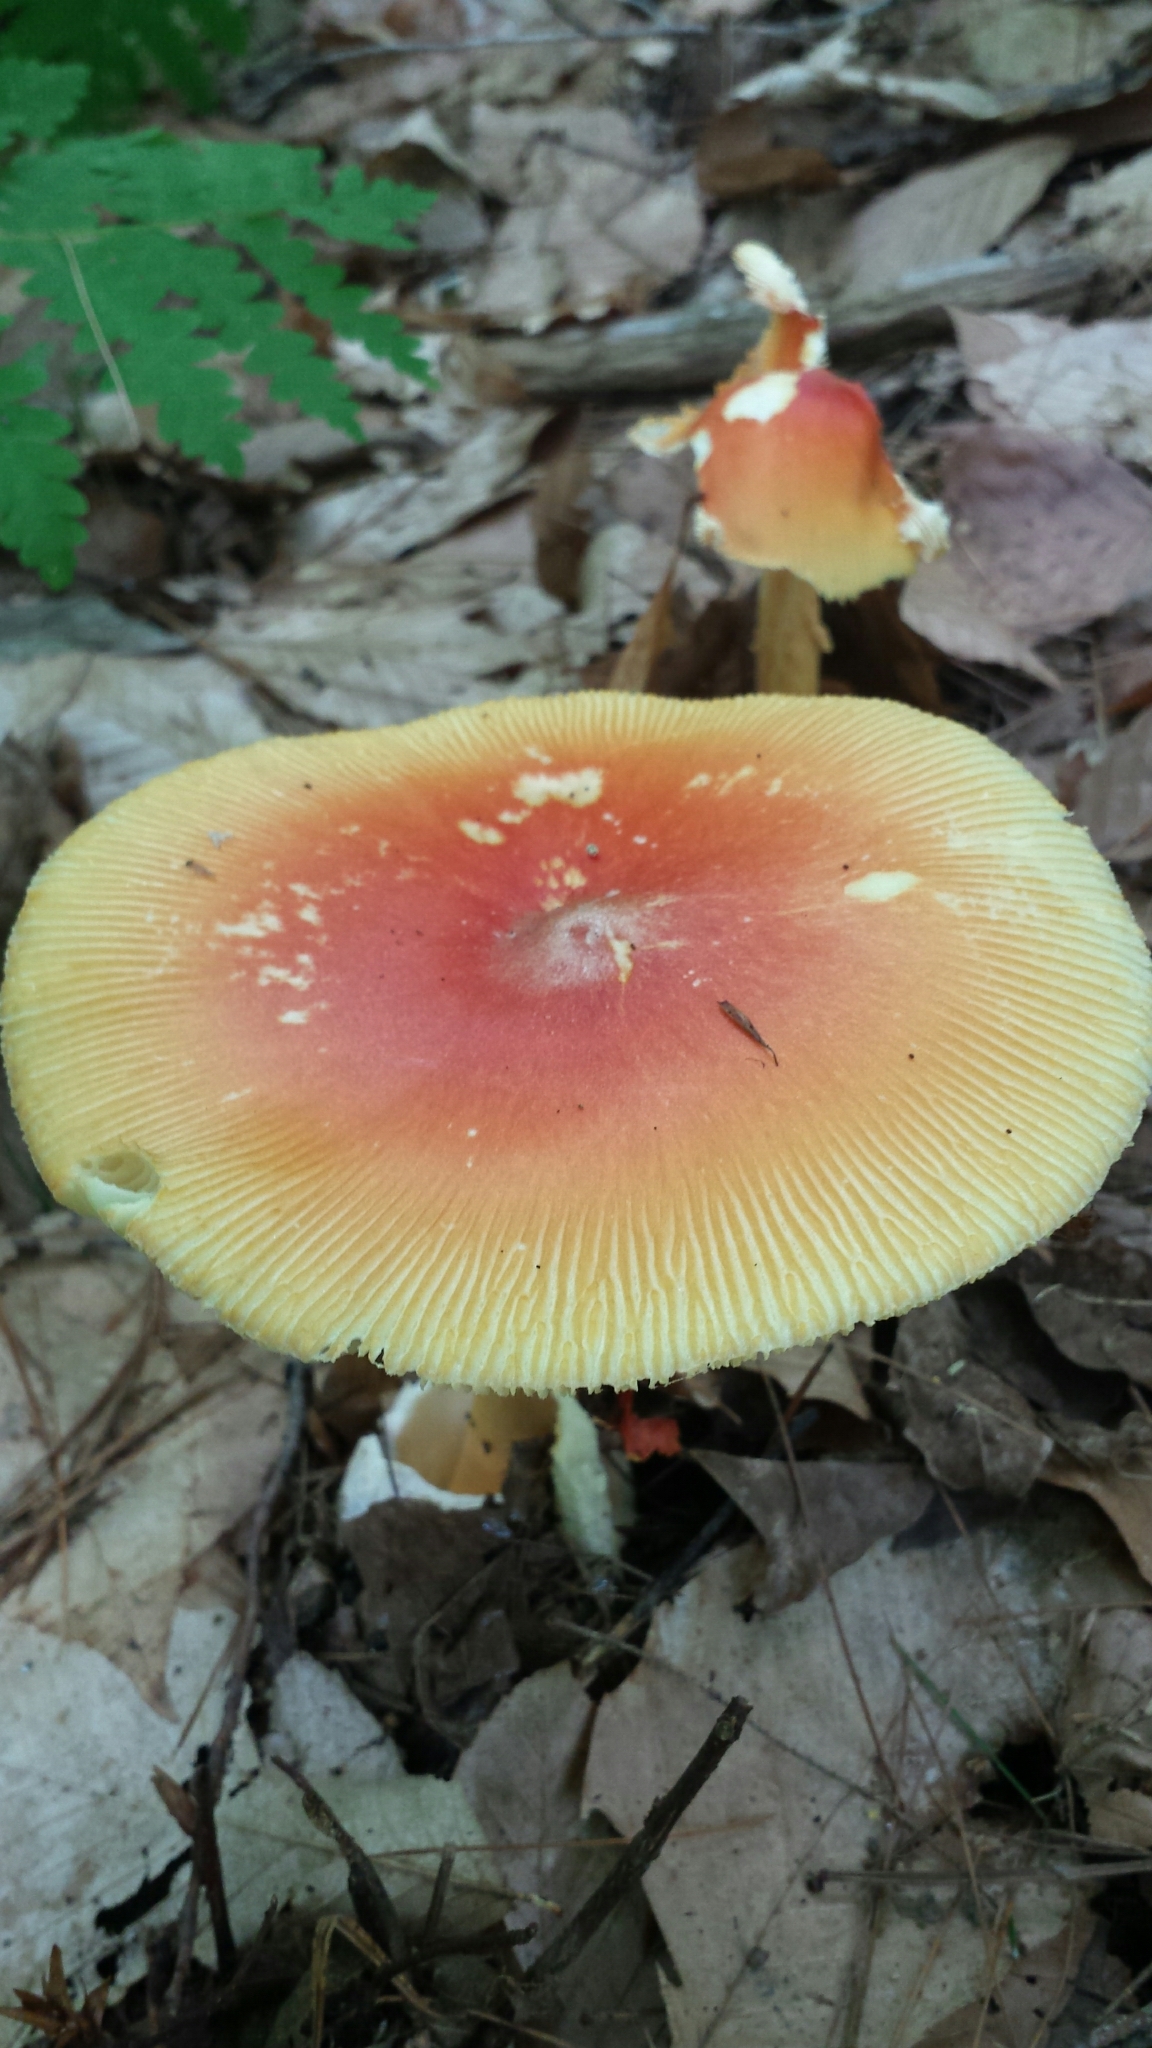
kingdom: Fungi
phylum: Basidiomycota
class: Agaricomycetes
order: Agaricales
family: Amanitaceae
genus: Amanita
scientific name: Amanita jacksonii
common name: Jackson's slender caesar
